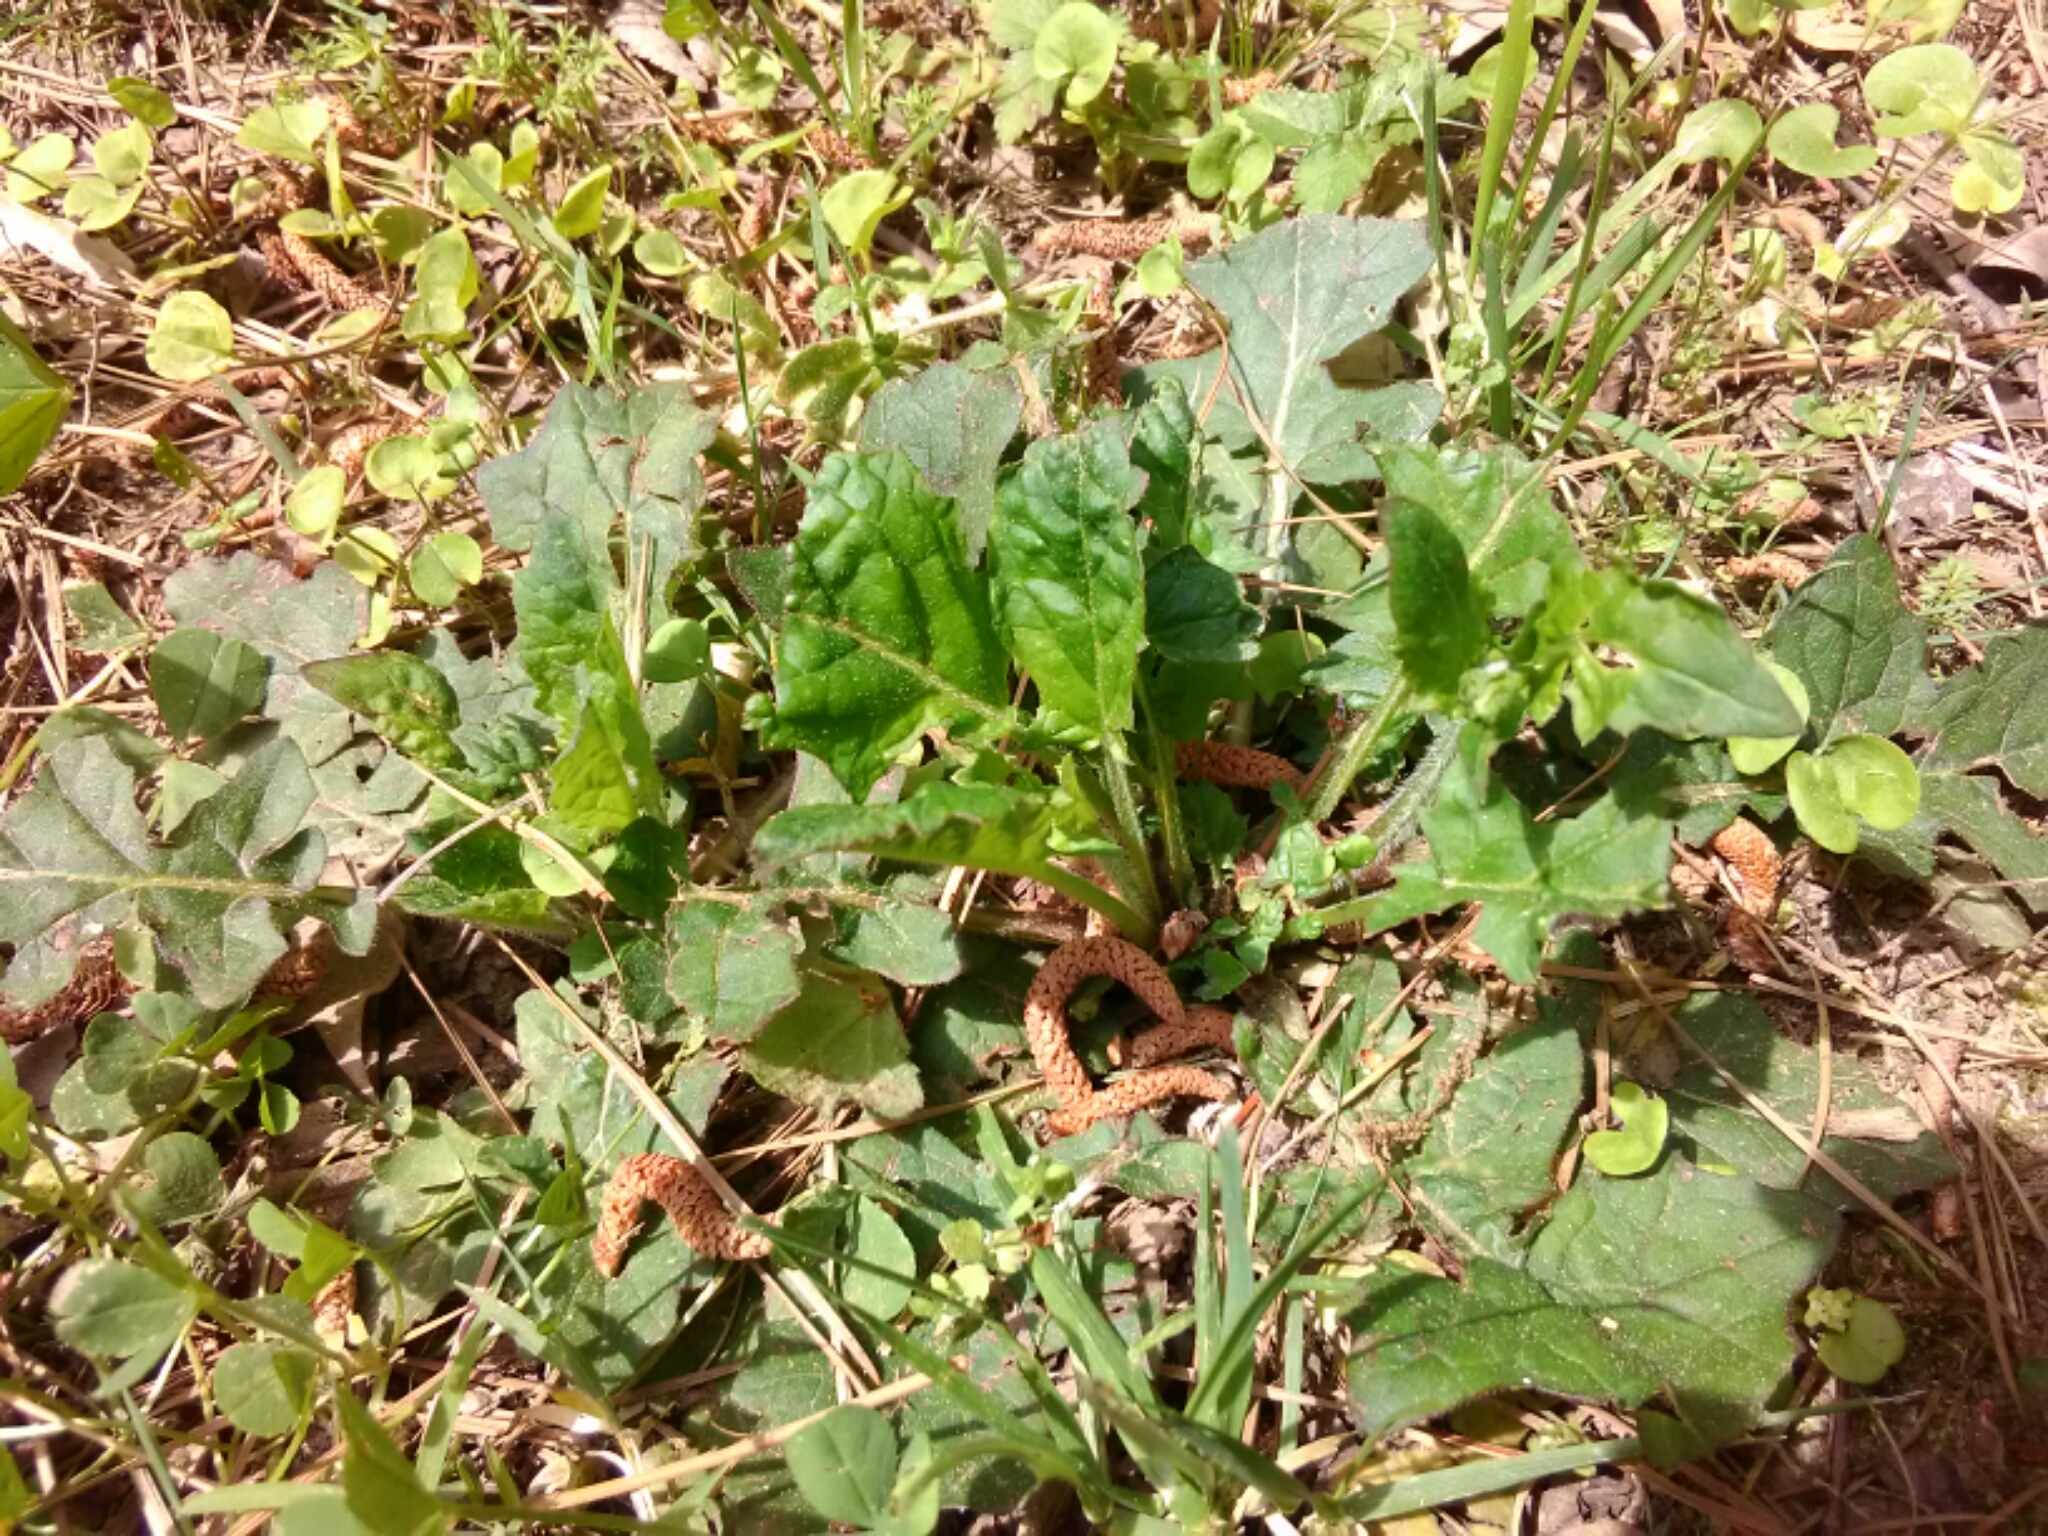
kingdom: Plantae
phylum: Tracheophyta
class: Magnoliopsida
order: Lamiales
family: Lamiaceae
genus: Salvia
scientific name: Salvia lyrata
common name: Cancerweed
